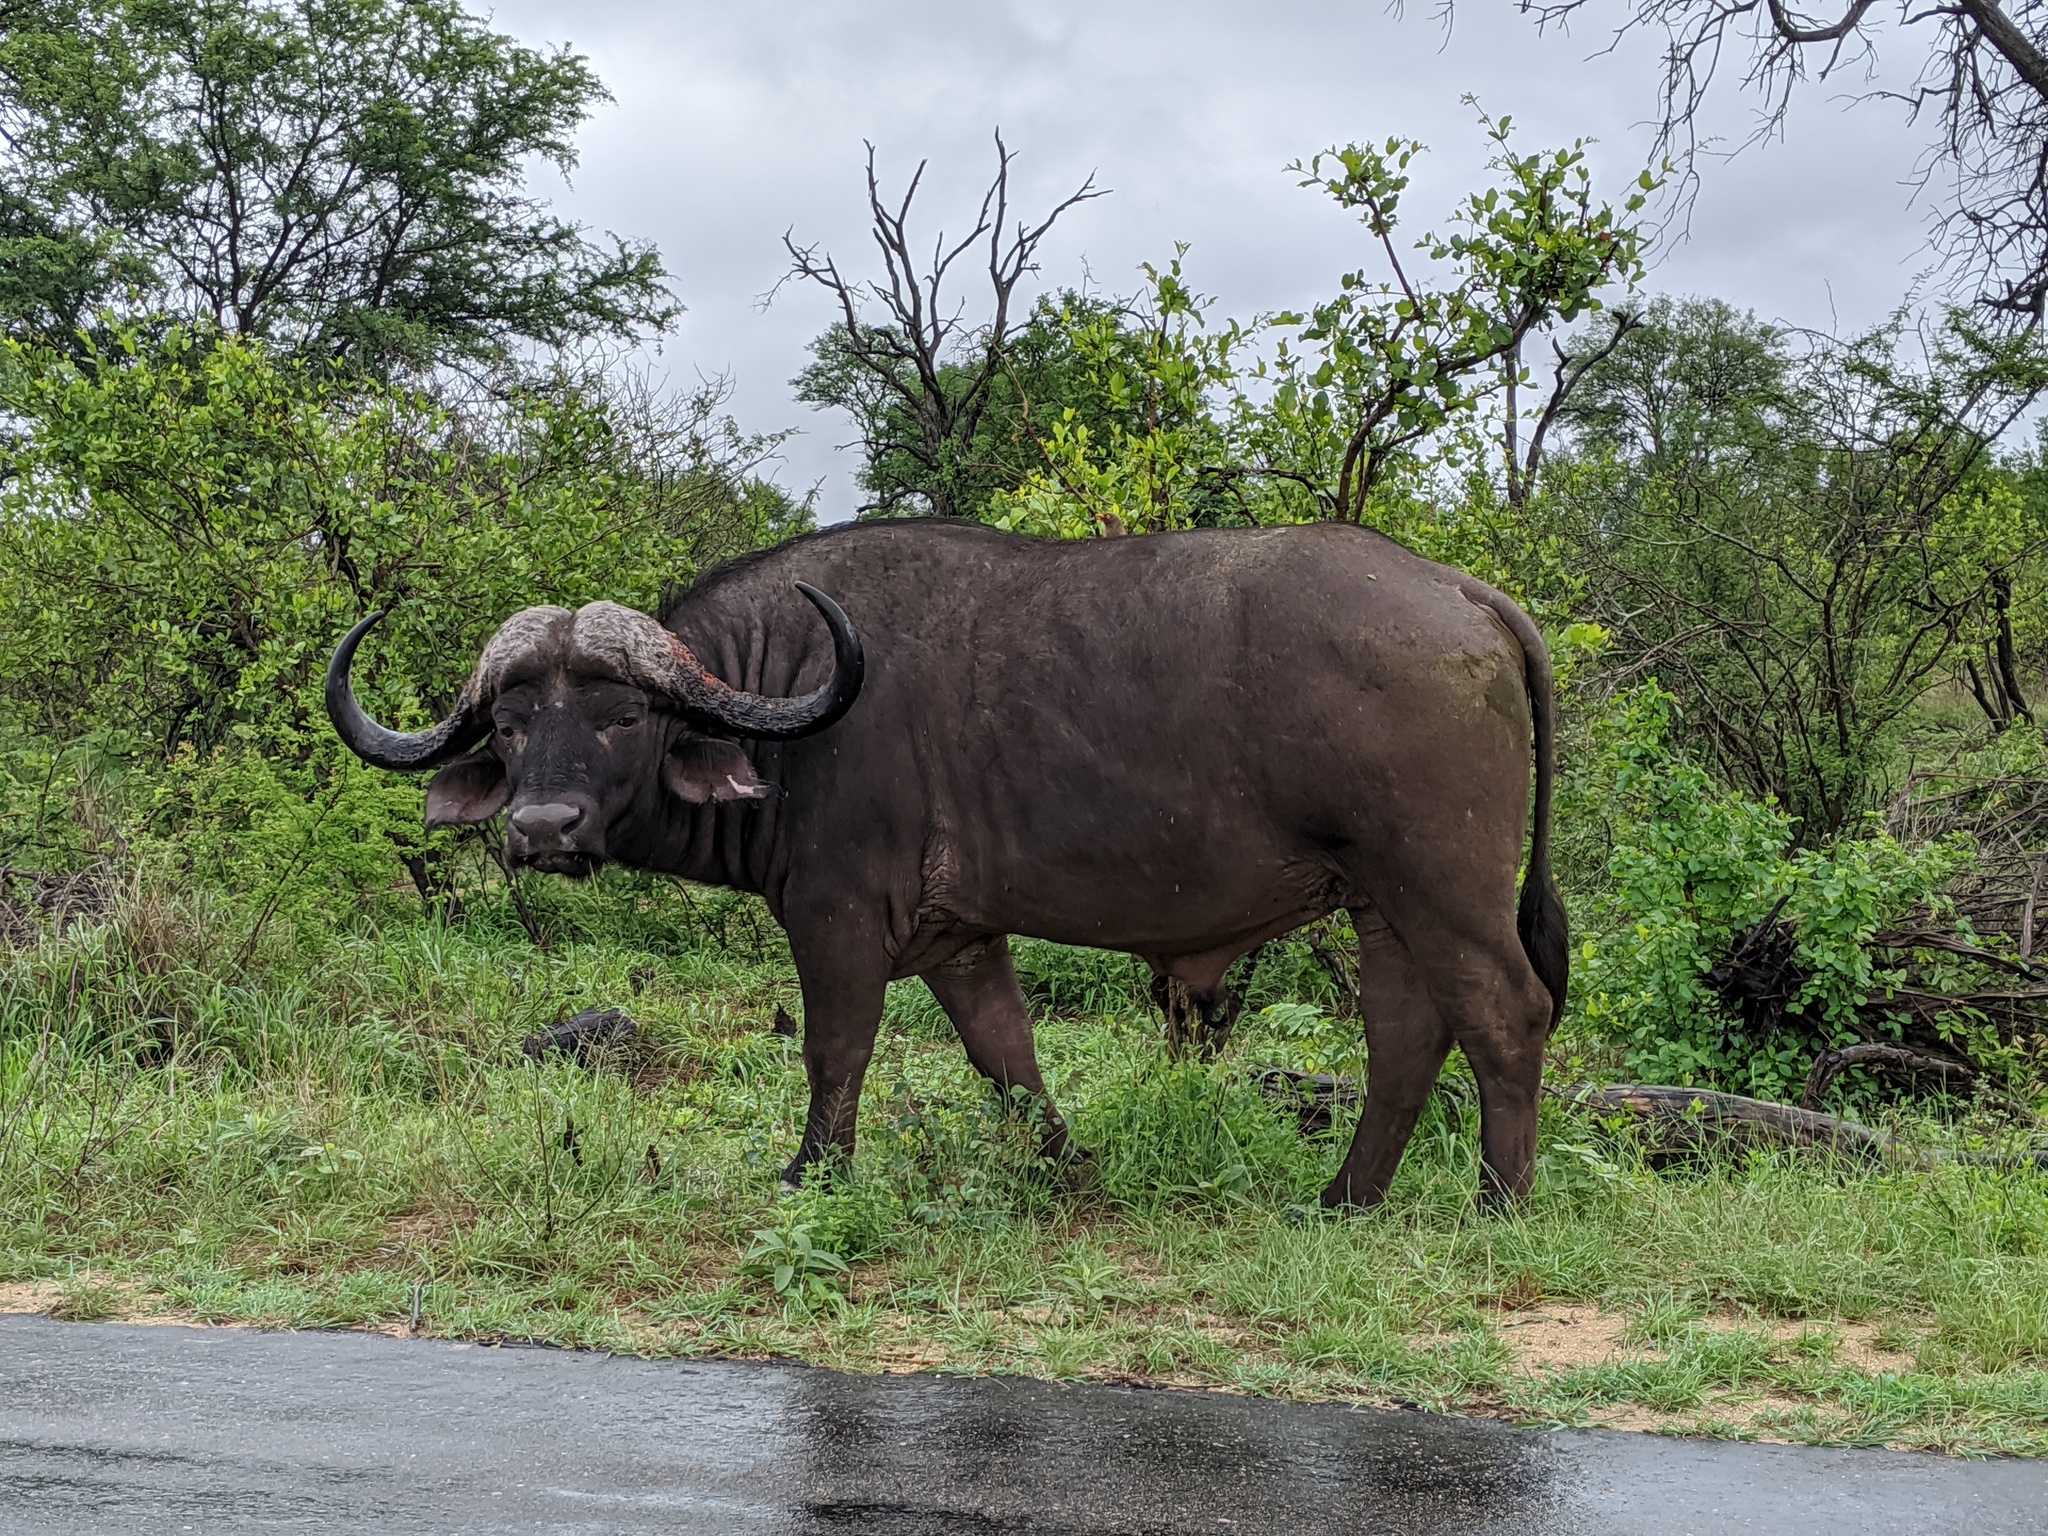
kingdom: Animalia
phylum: Chordata
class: Mammalia
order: Artiodactyla
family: Bovidae
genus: Syncerus
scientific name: Syncerus caffer
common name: African buffalo
